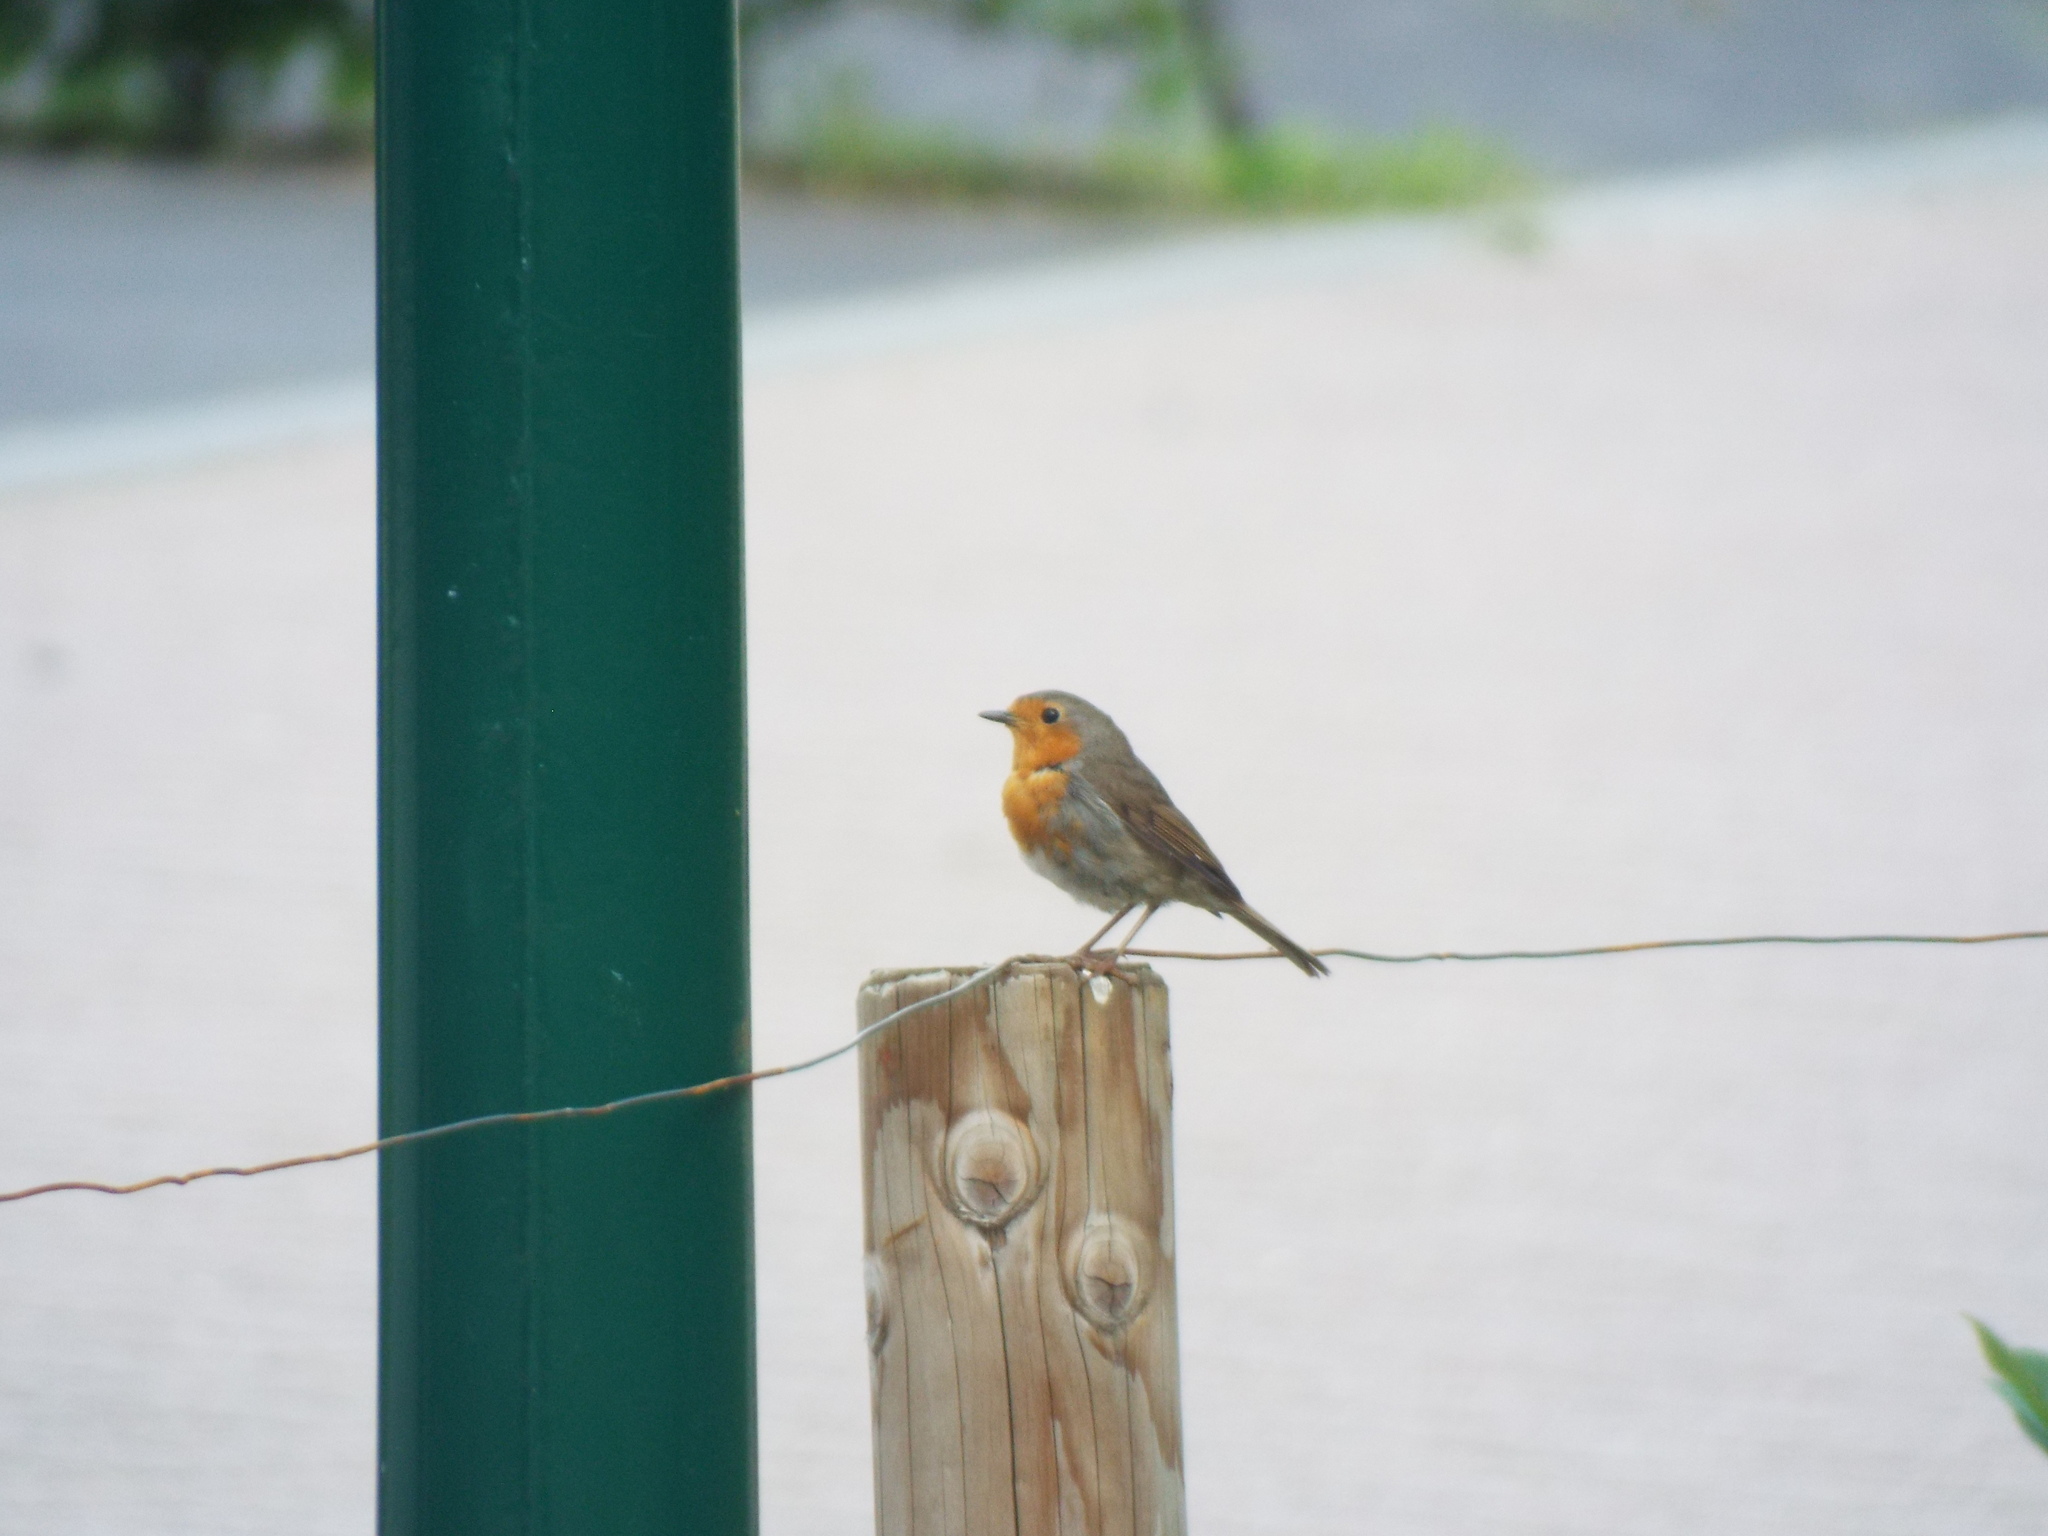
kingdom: Animalia
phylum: Chordata
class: Aves
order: Passeriformes
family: Muscicapidae
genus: Erithacus
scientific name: Erithacus rubecula
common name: European robin
